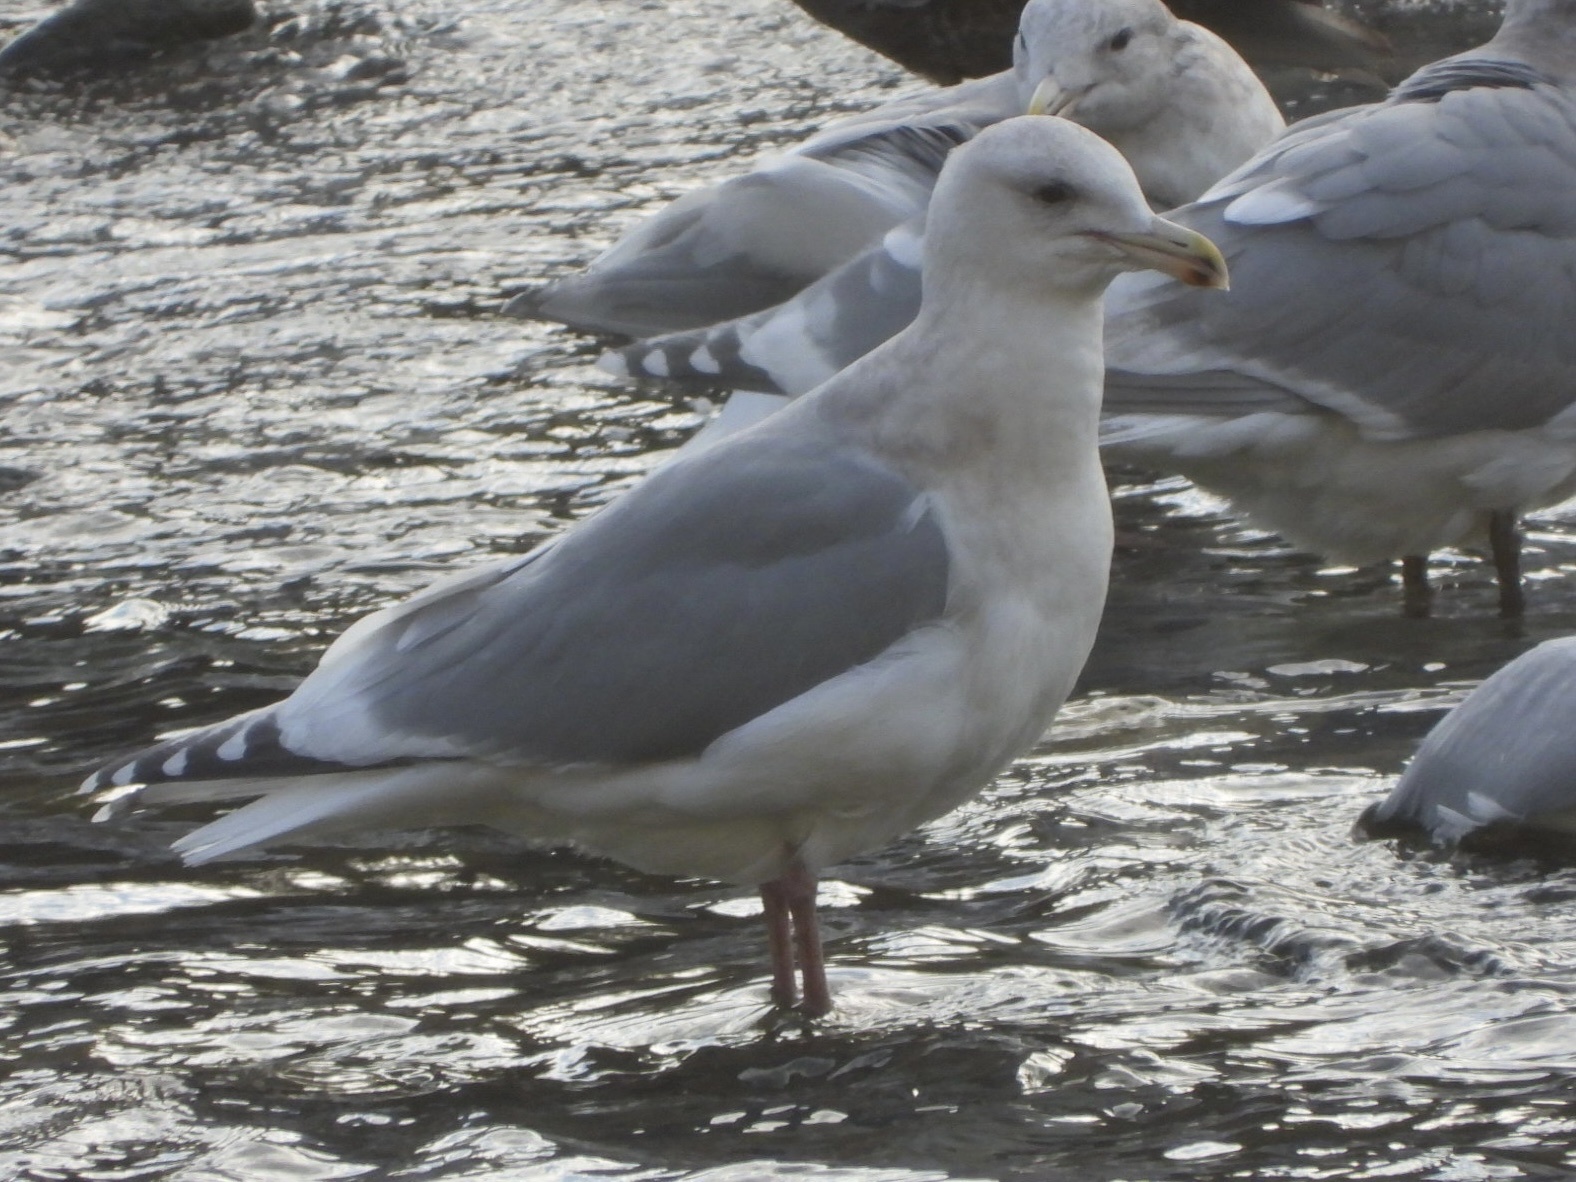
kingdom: Animalia
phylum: Chordata
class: Aves
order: Charadriiformes
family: Laridae
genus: Larus
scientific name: Larus
